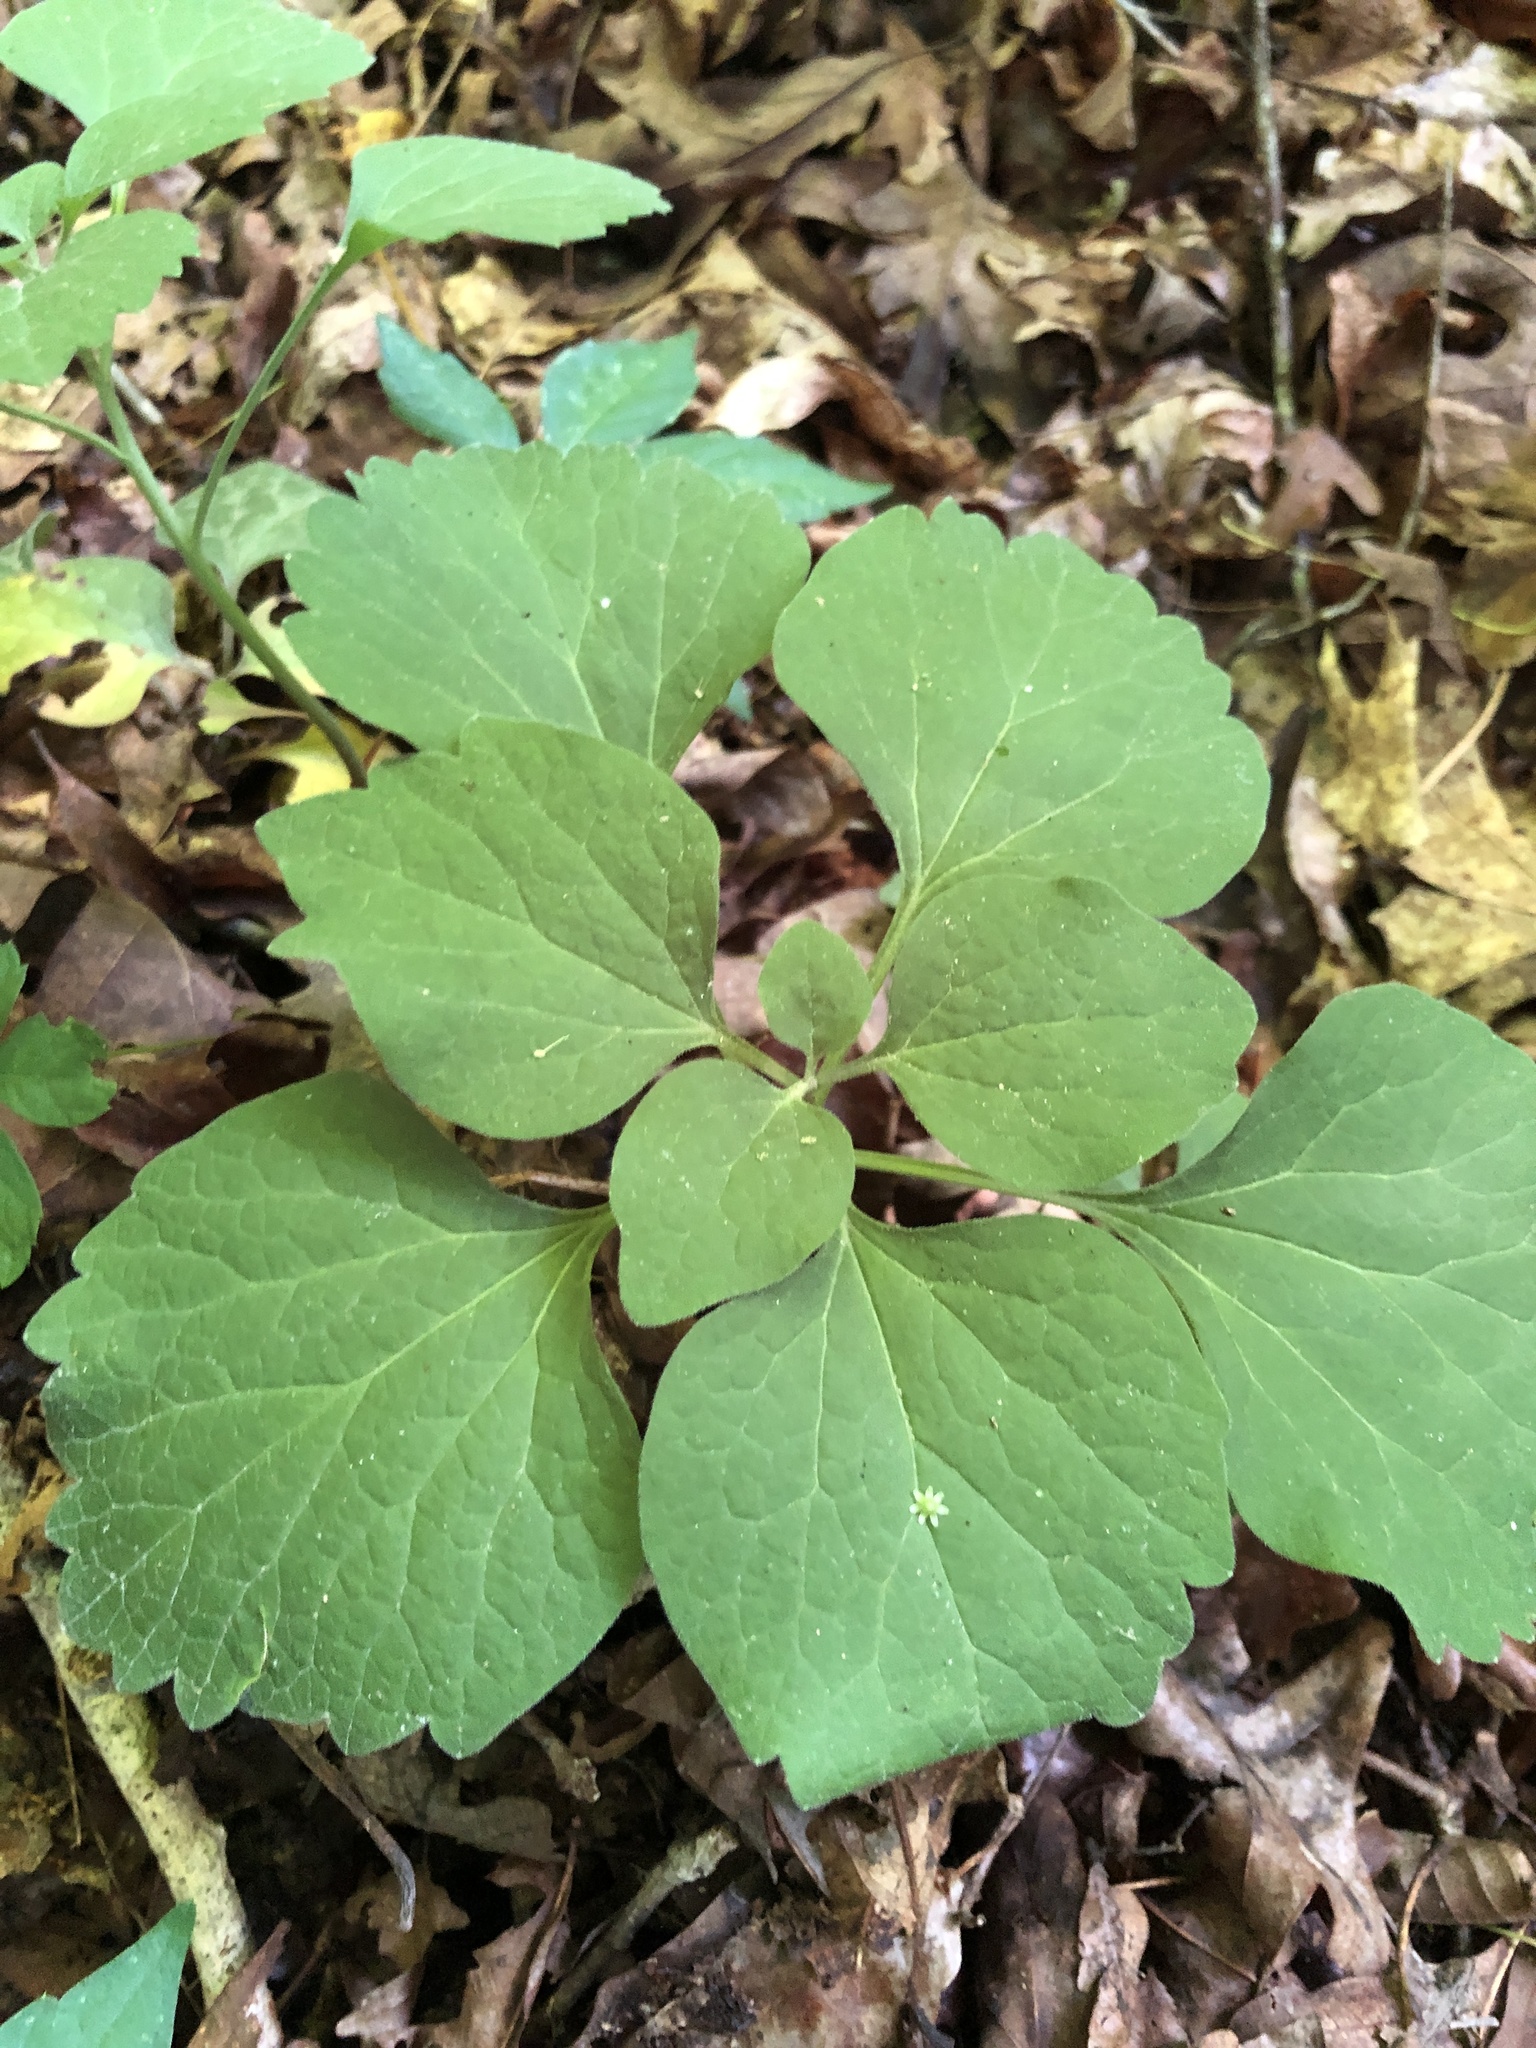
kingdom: Plantae
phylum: Tracheophyta
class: Magnoliopsida
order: Buxales
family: Buxaceae
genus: Pachysandra
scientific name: Pachysandra procumbens
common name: Mountain-spurge
